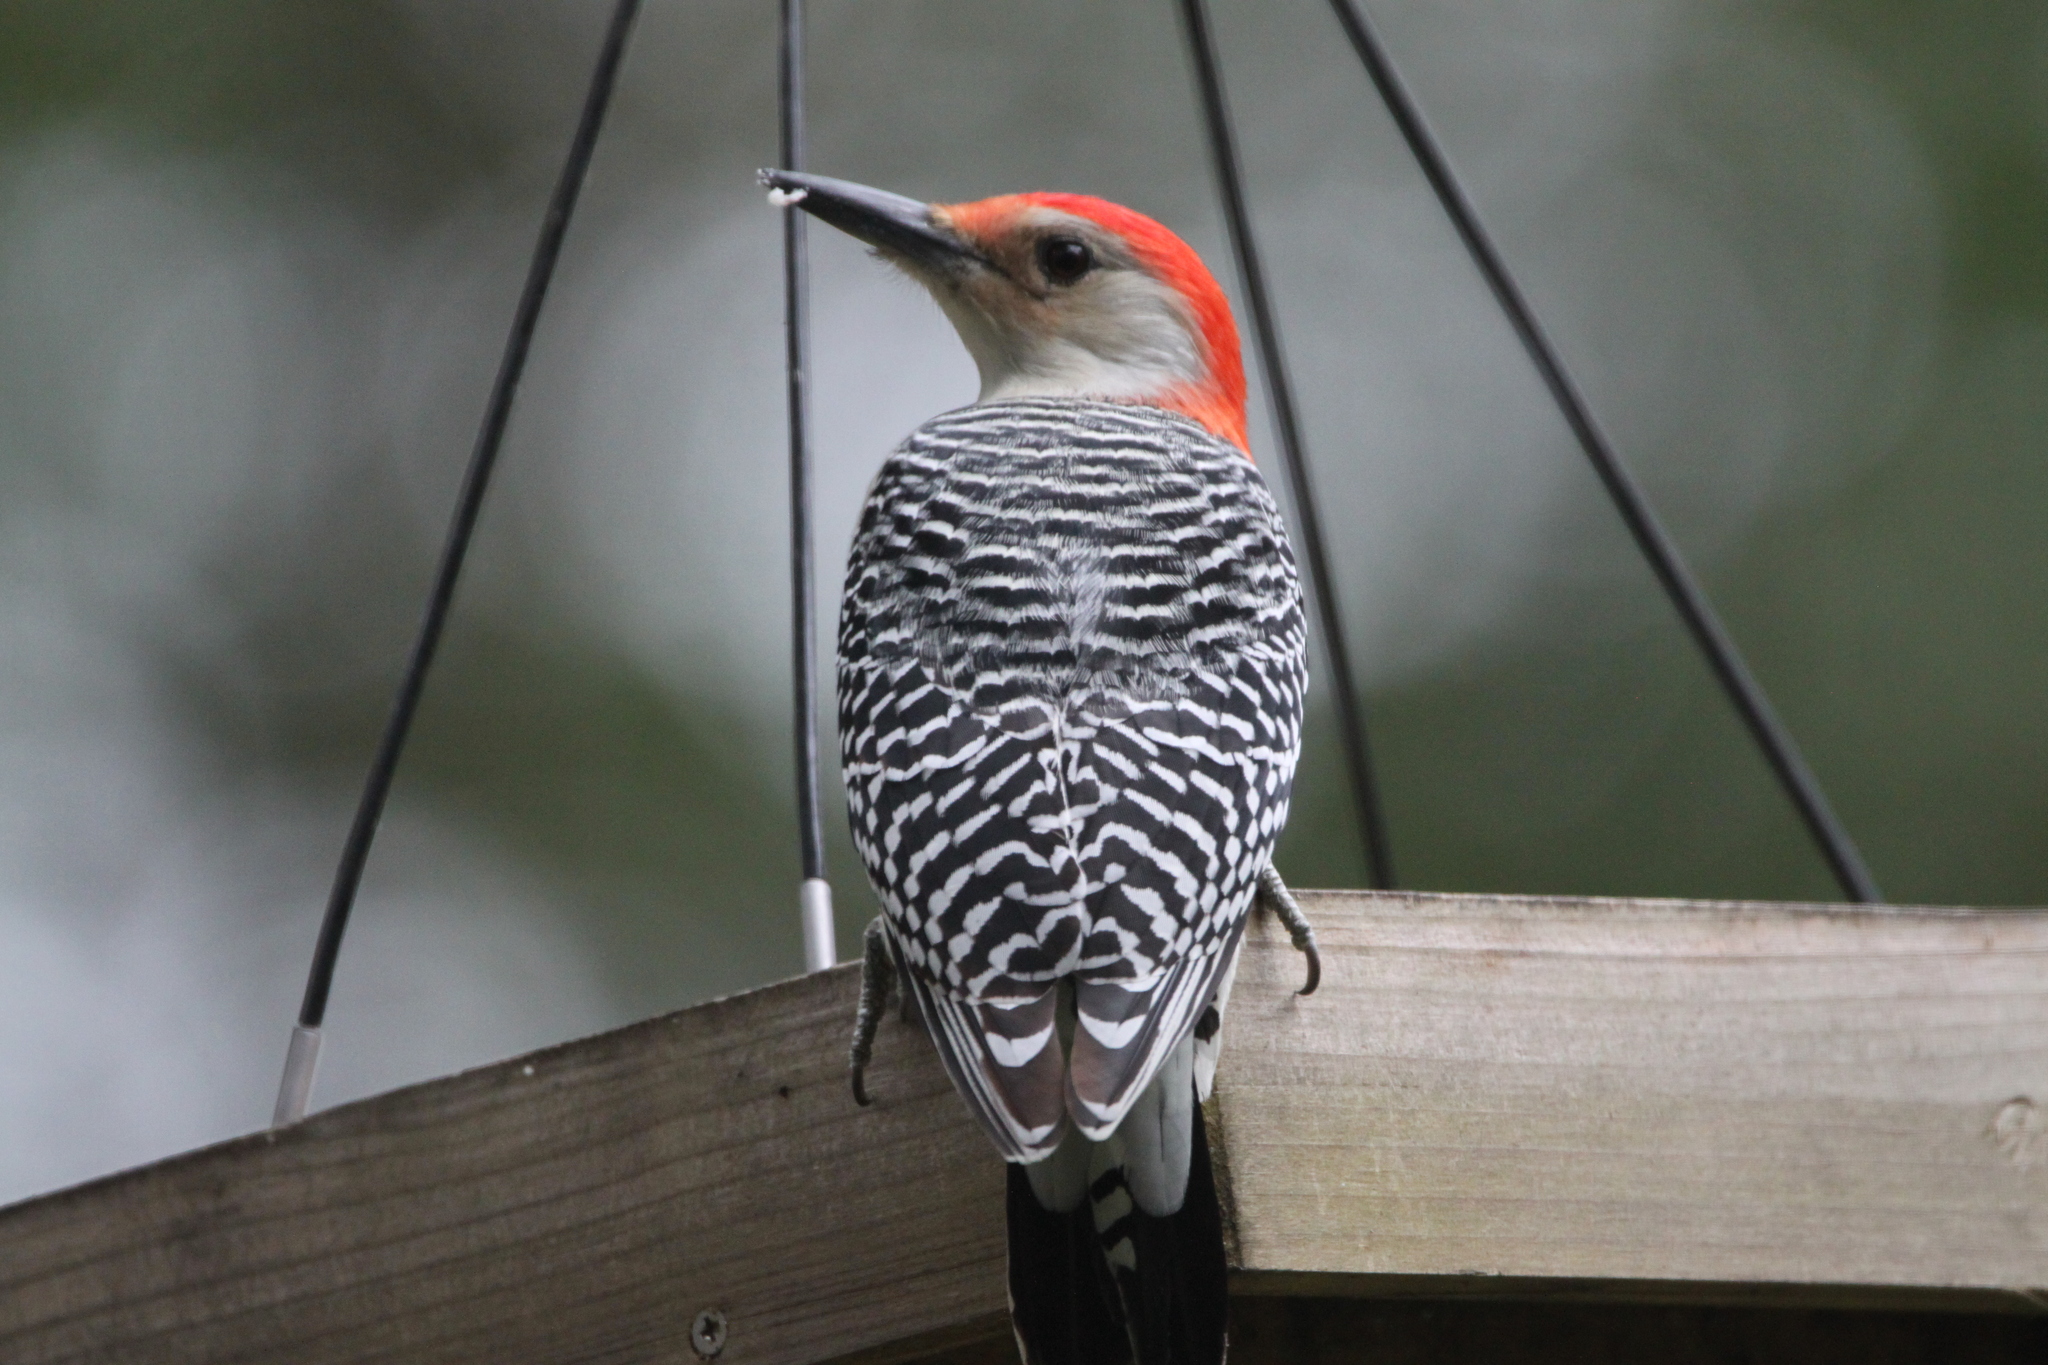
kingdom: Animalia
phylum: Chordata
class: Aves
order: Piciformes
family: Picidae
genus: Melanerpes
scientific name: Melanerpes carolinus
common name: Red-bellied woodpecker
